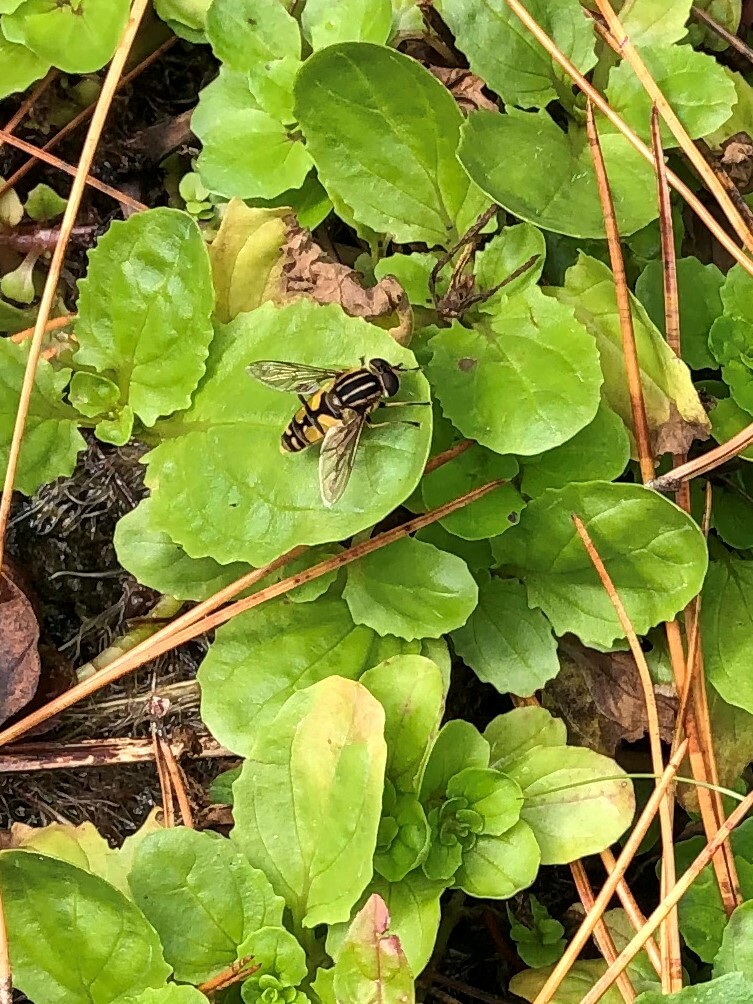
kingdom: Animalia
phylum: Arthropoda
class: Insecta
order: Diptera
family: Syrphidae
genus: Helophilus
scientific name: Helophilus pendulus
